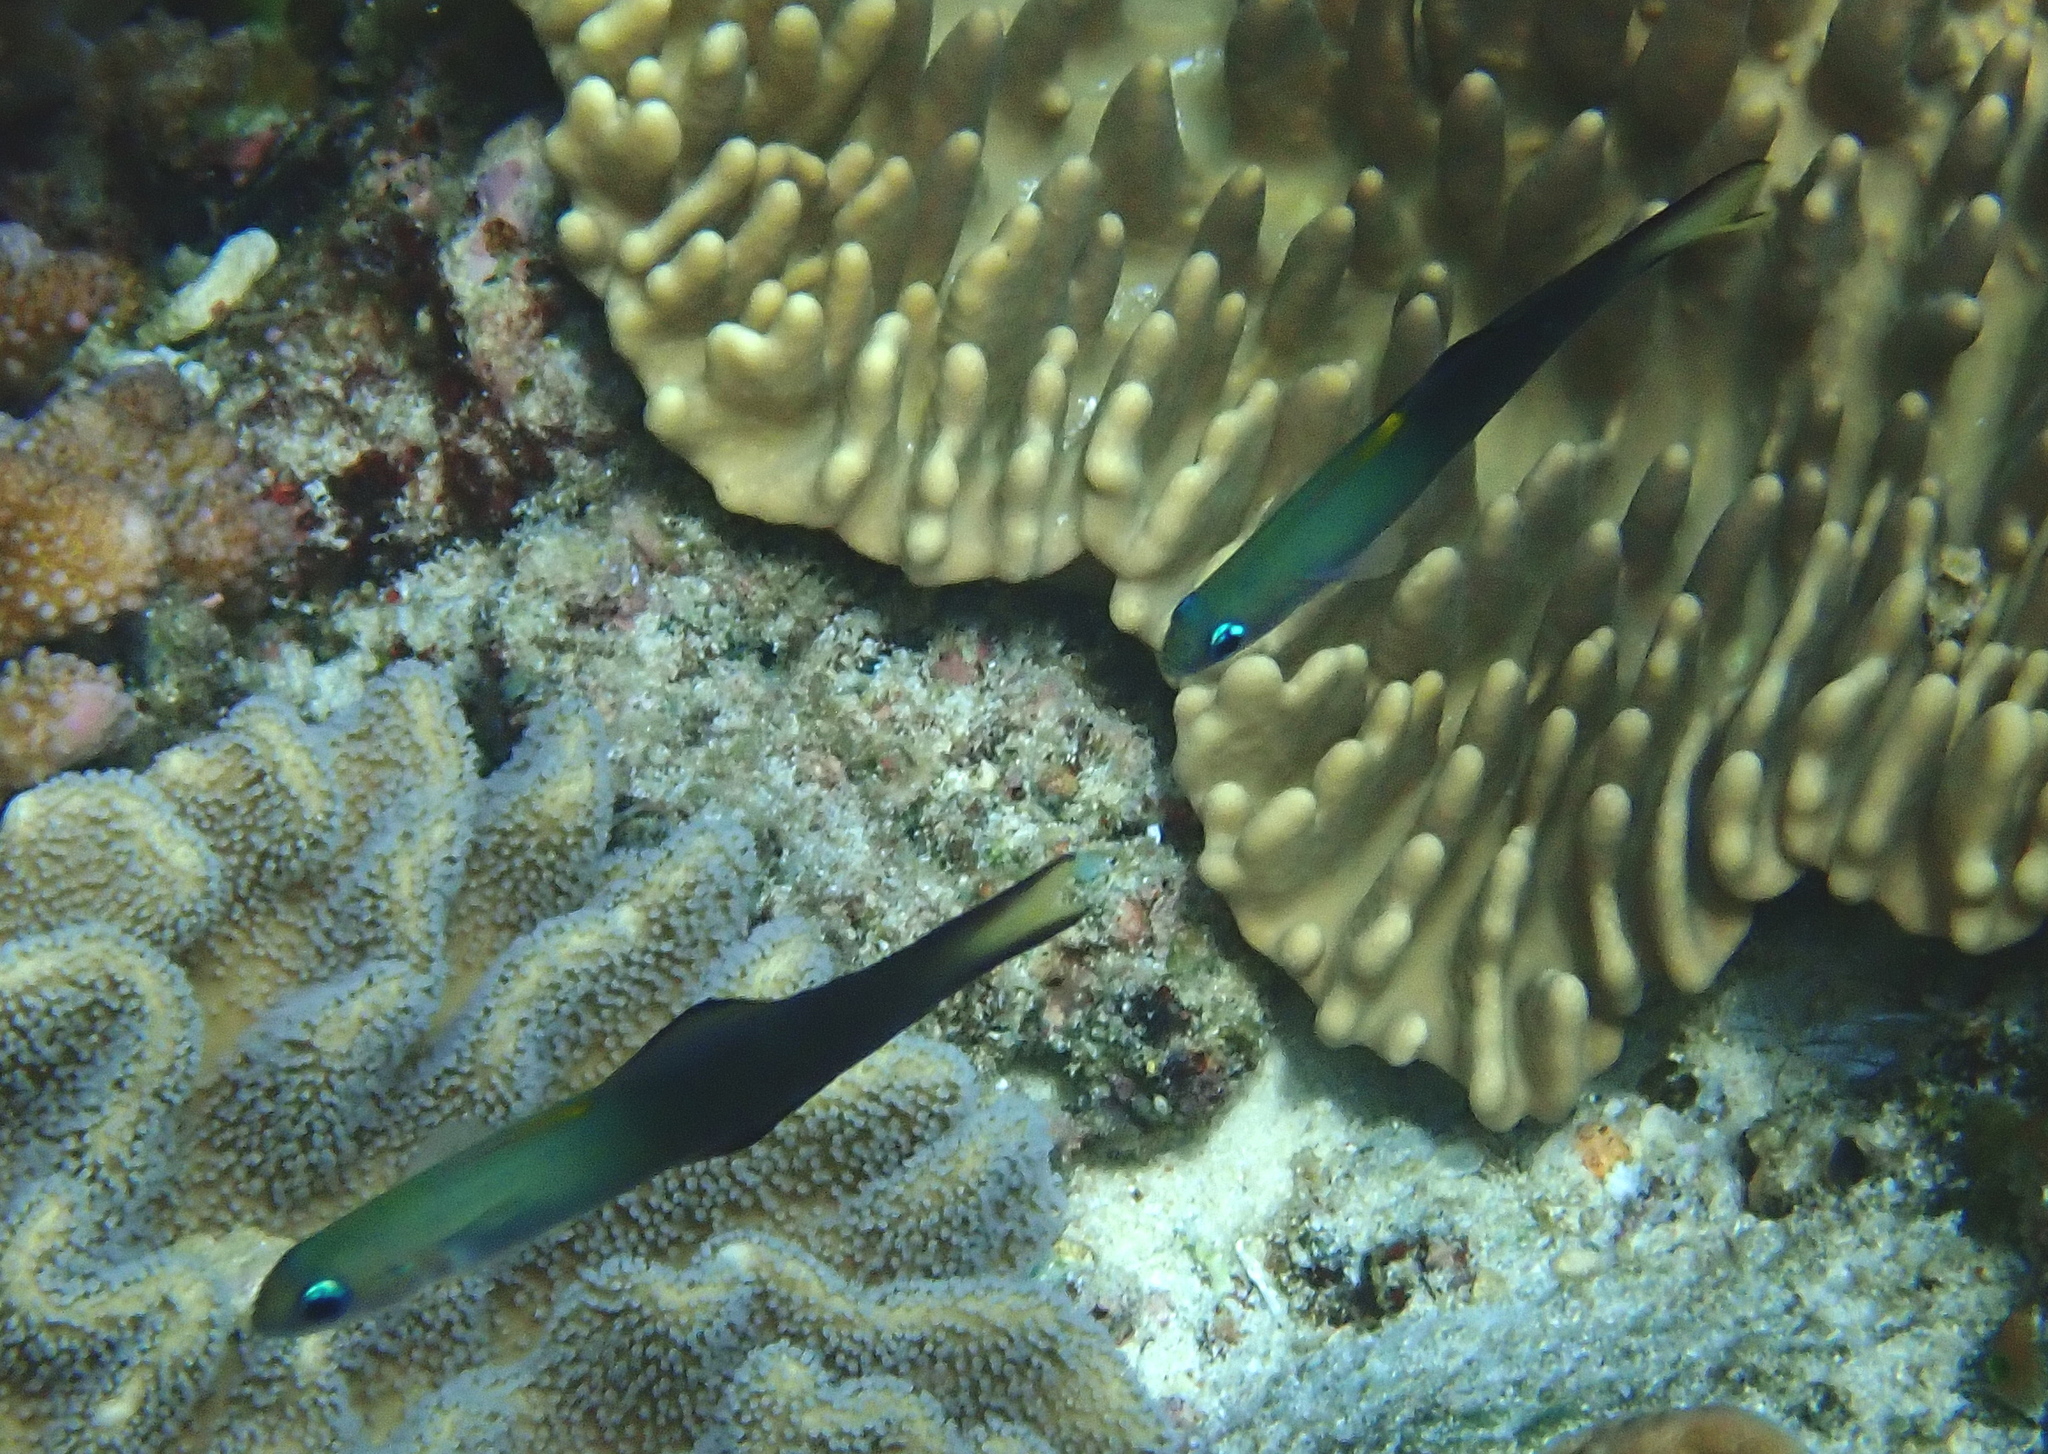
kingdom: Animalia
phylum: Chordata
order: Perciformes
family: Microdesmidae
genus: Ptereleotris
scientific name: Ptereleotris evides
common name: Blackfin dartfish
